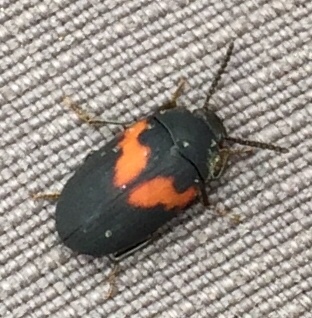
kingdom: Animalia
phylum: Arthropoda
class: Insecta
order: Coleoptera
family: Tenebrionidae
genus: Platydema
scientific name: Platydema elliptica
